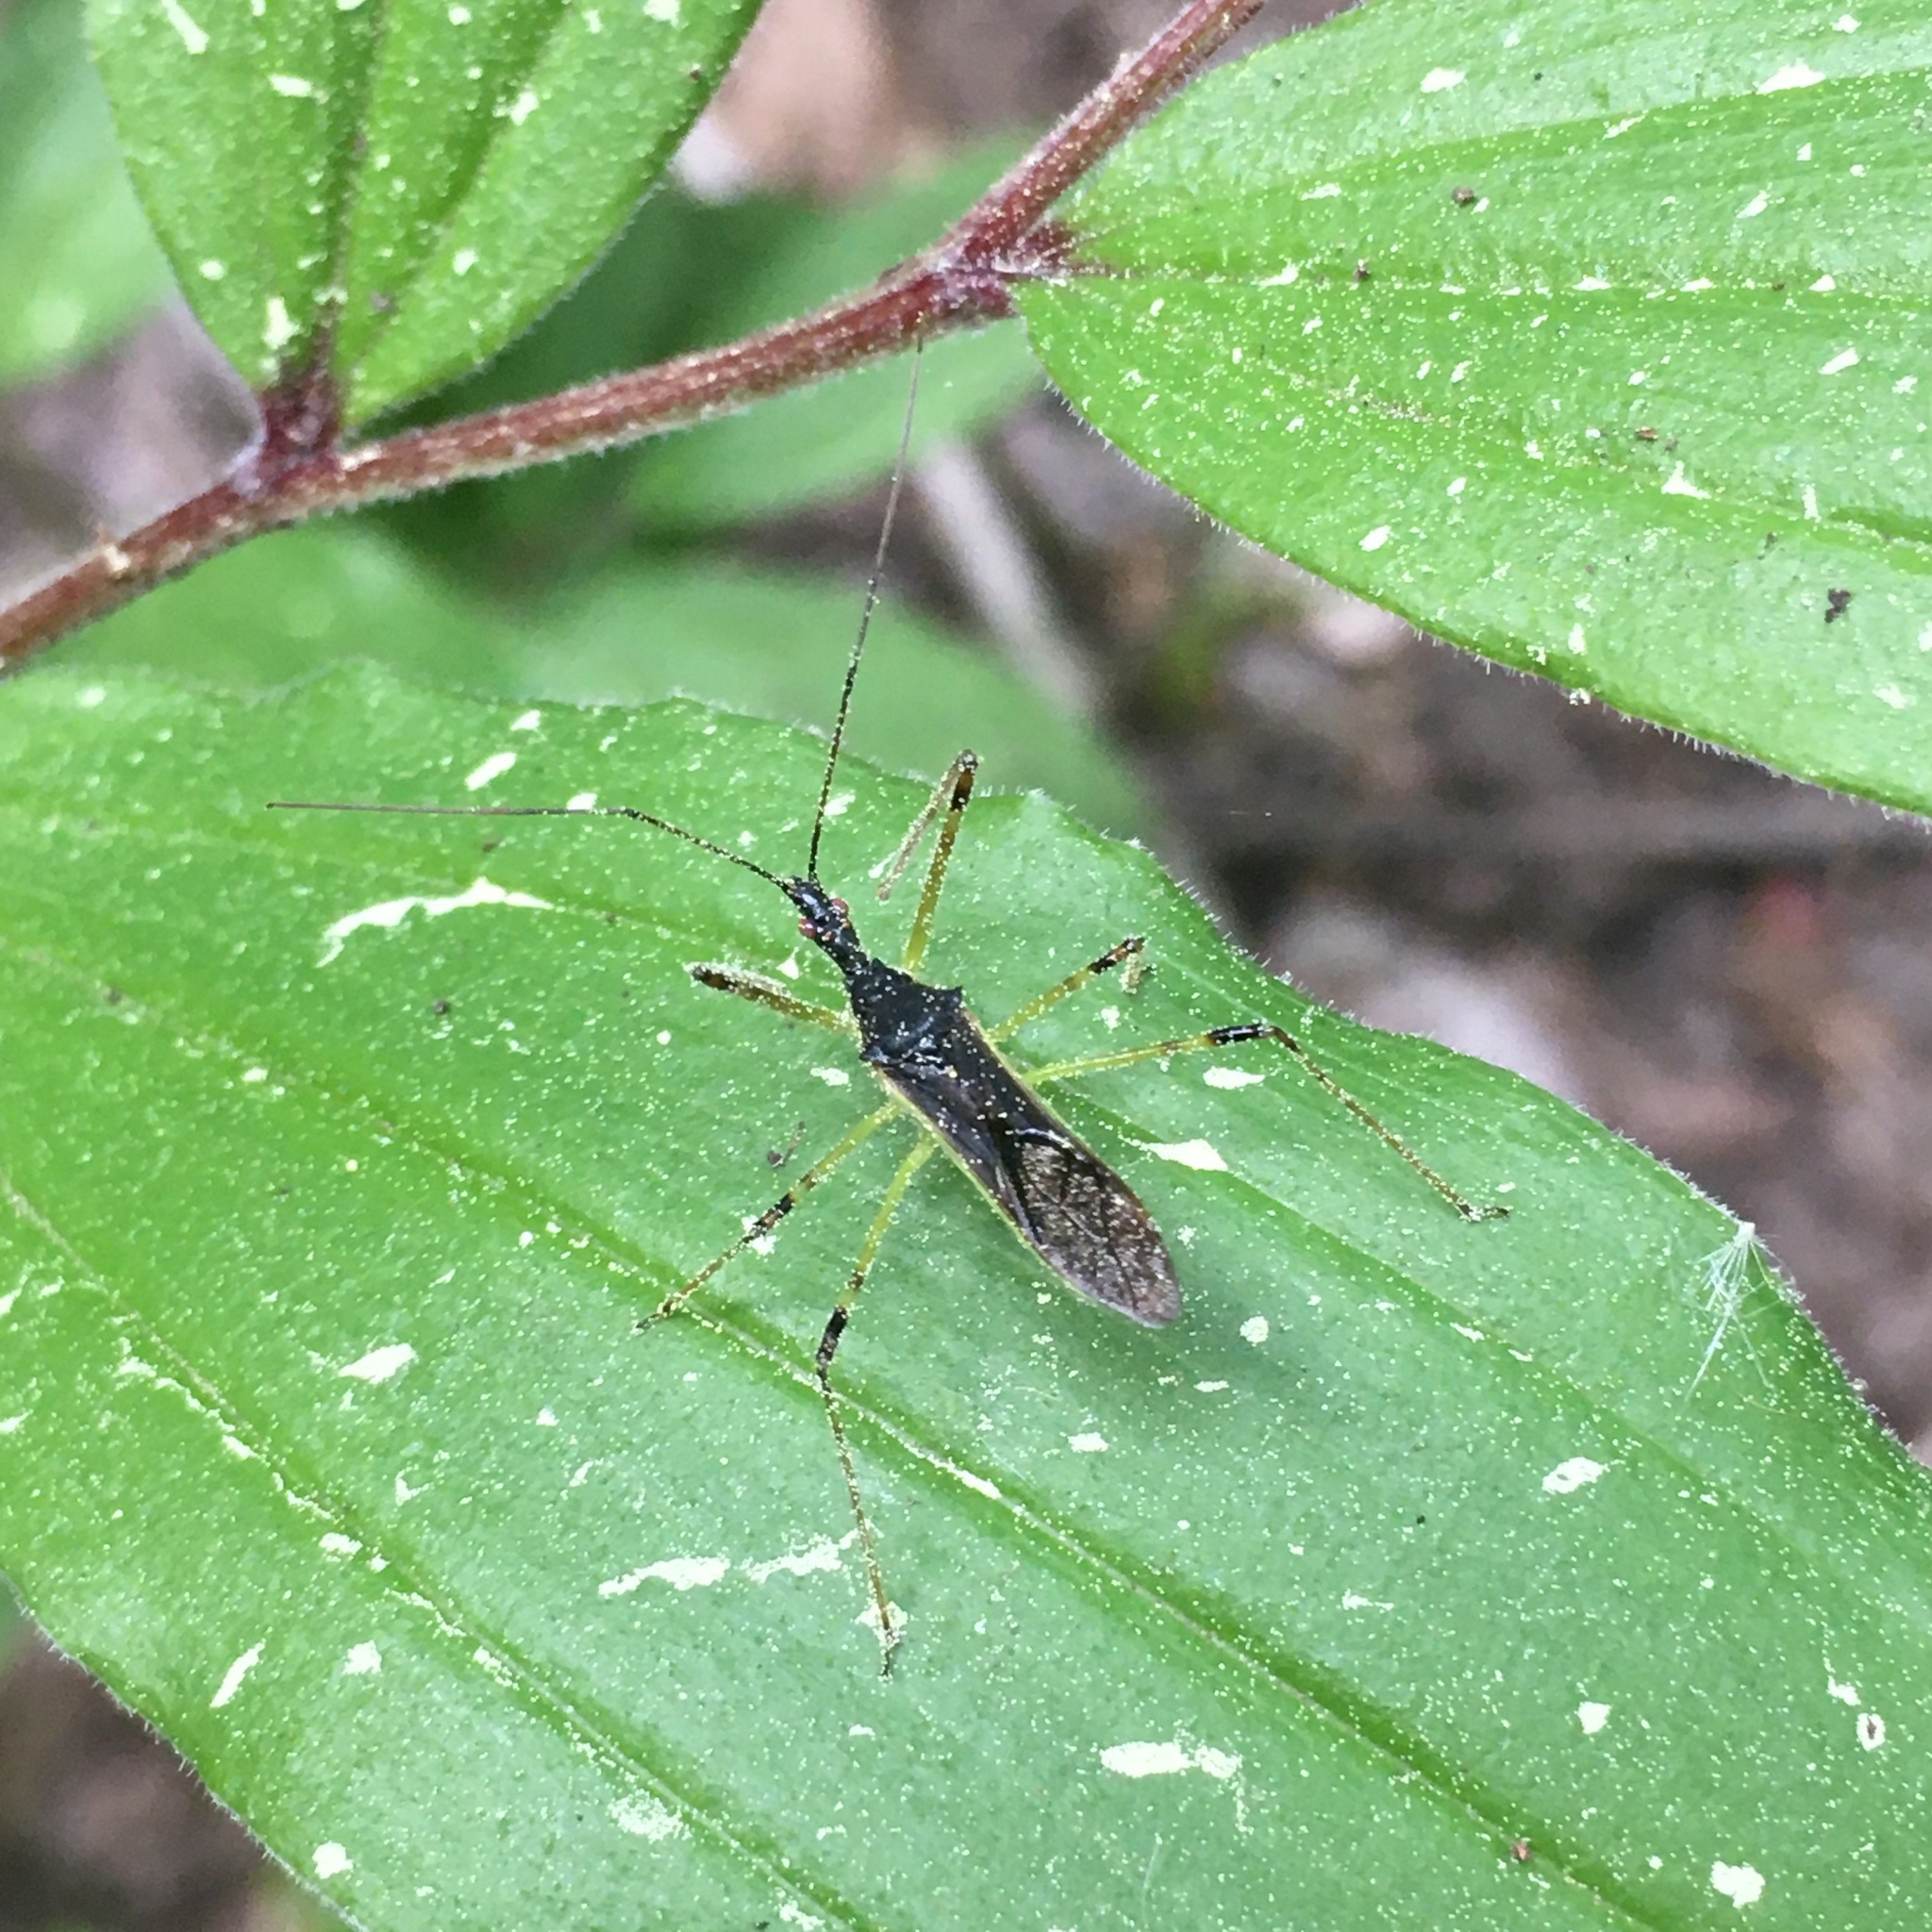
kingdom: Animalia
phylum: Arthropoda
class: Insecta
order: Hemiptera
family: Reduviidae
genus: Zelus
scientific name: Zelus luridus
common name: Pale green assassin bug
